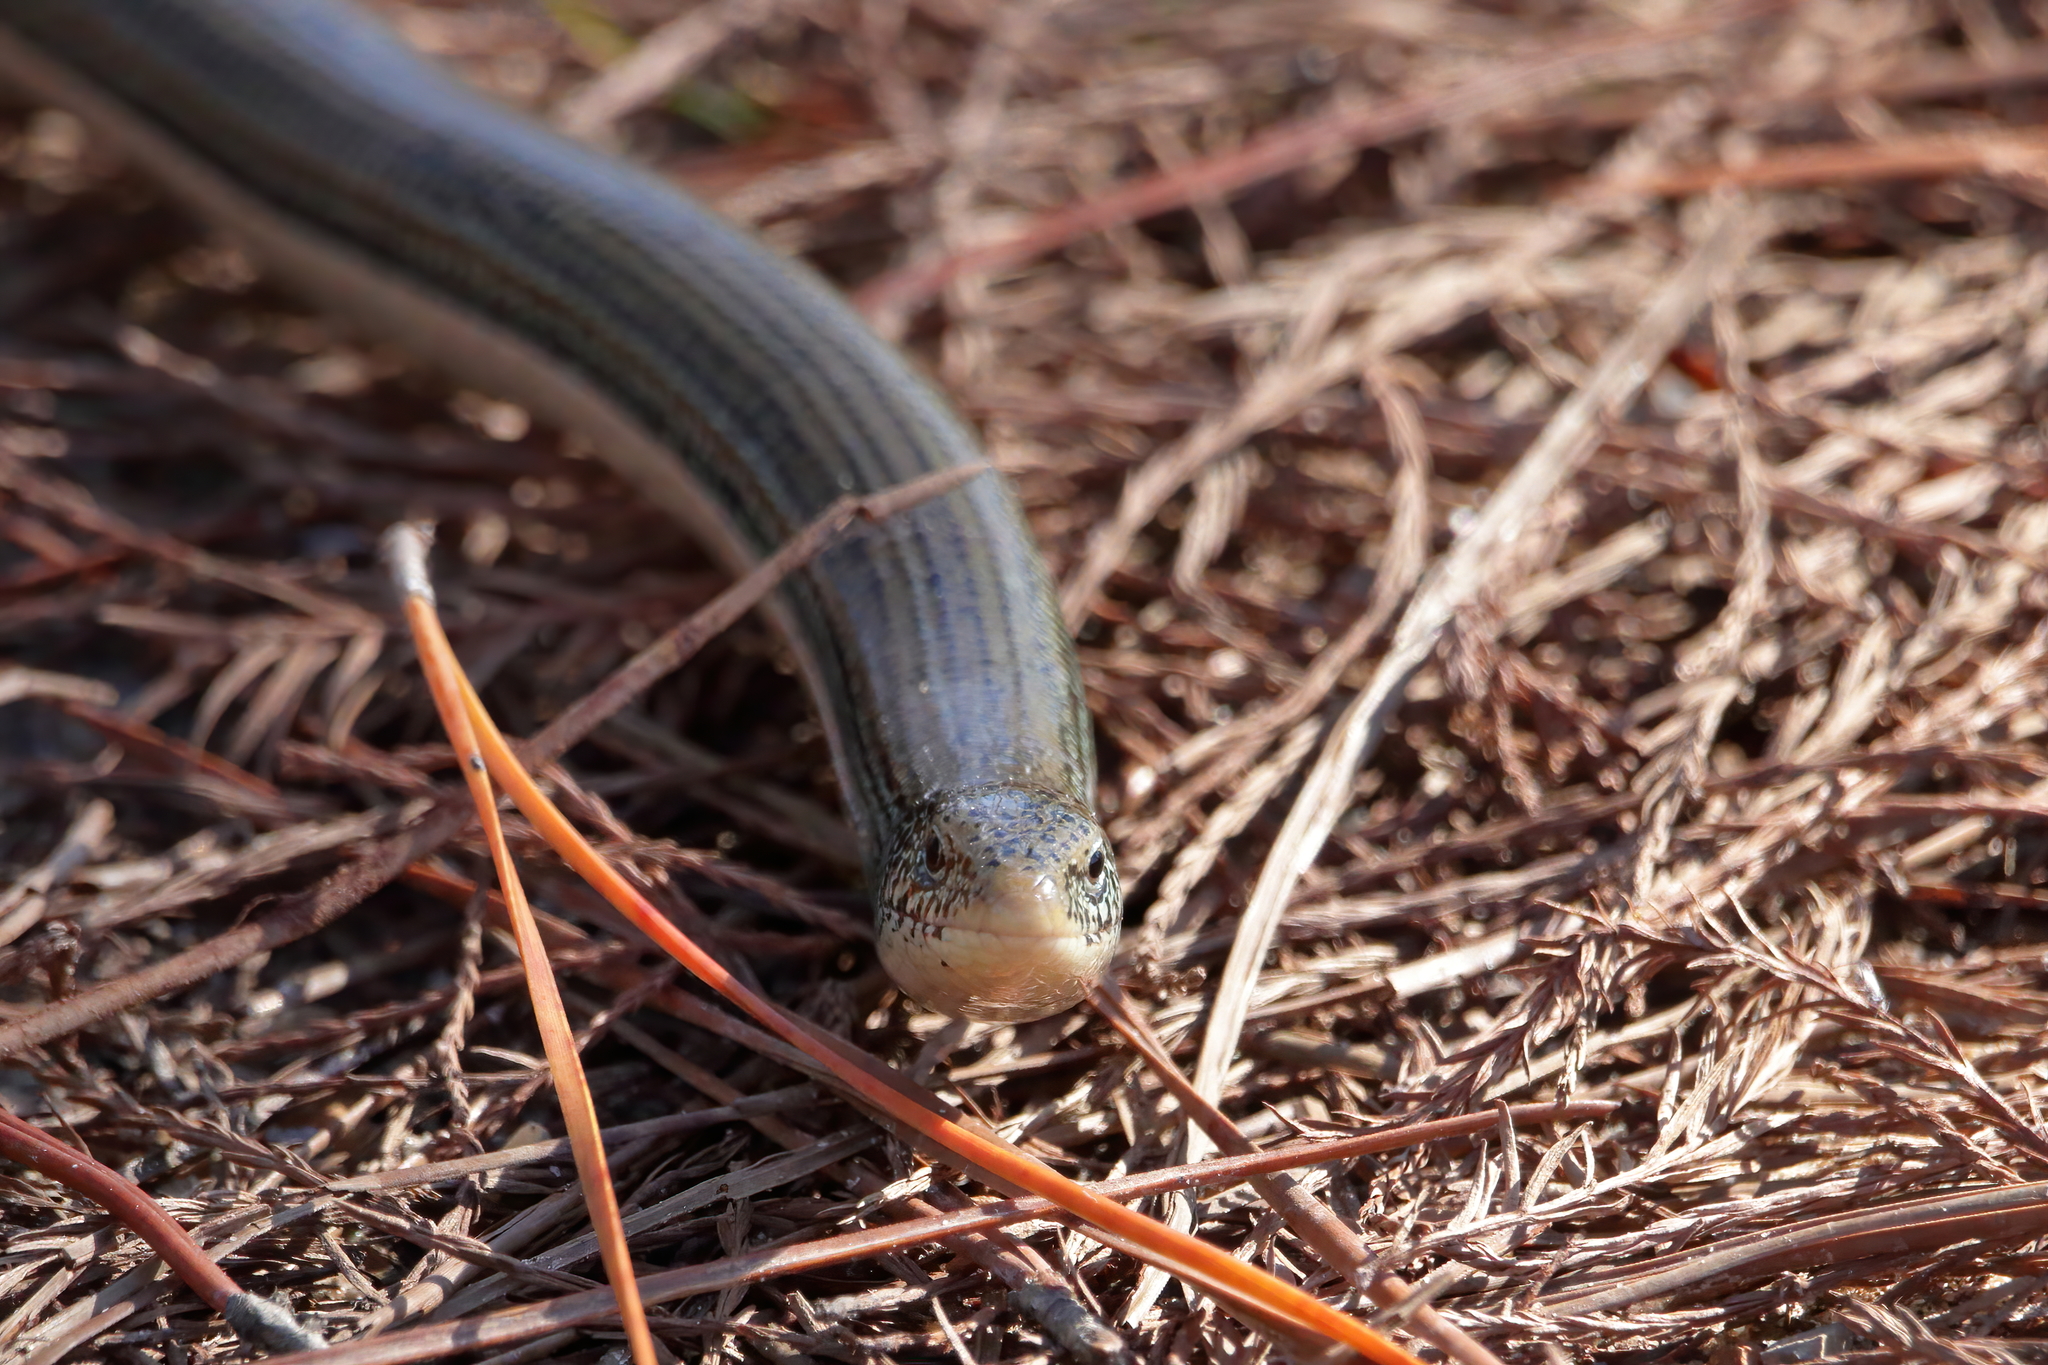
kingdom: Animalia
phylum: Chordata
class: Squamata
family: Anguidae
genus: Ophisaurus
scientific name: Ophisaurus ventralis
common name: Eastern glass lizard
